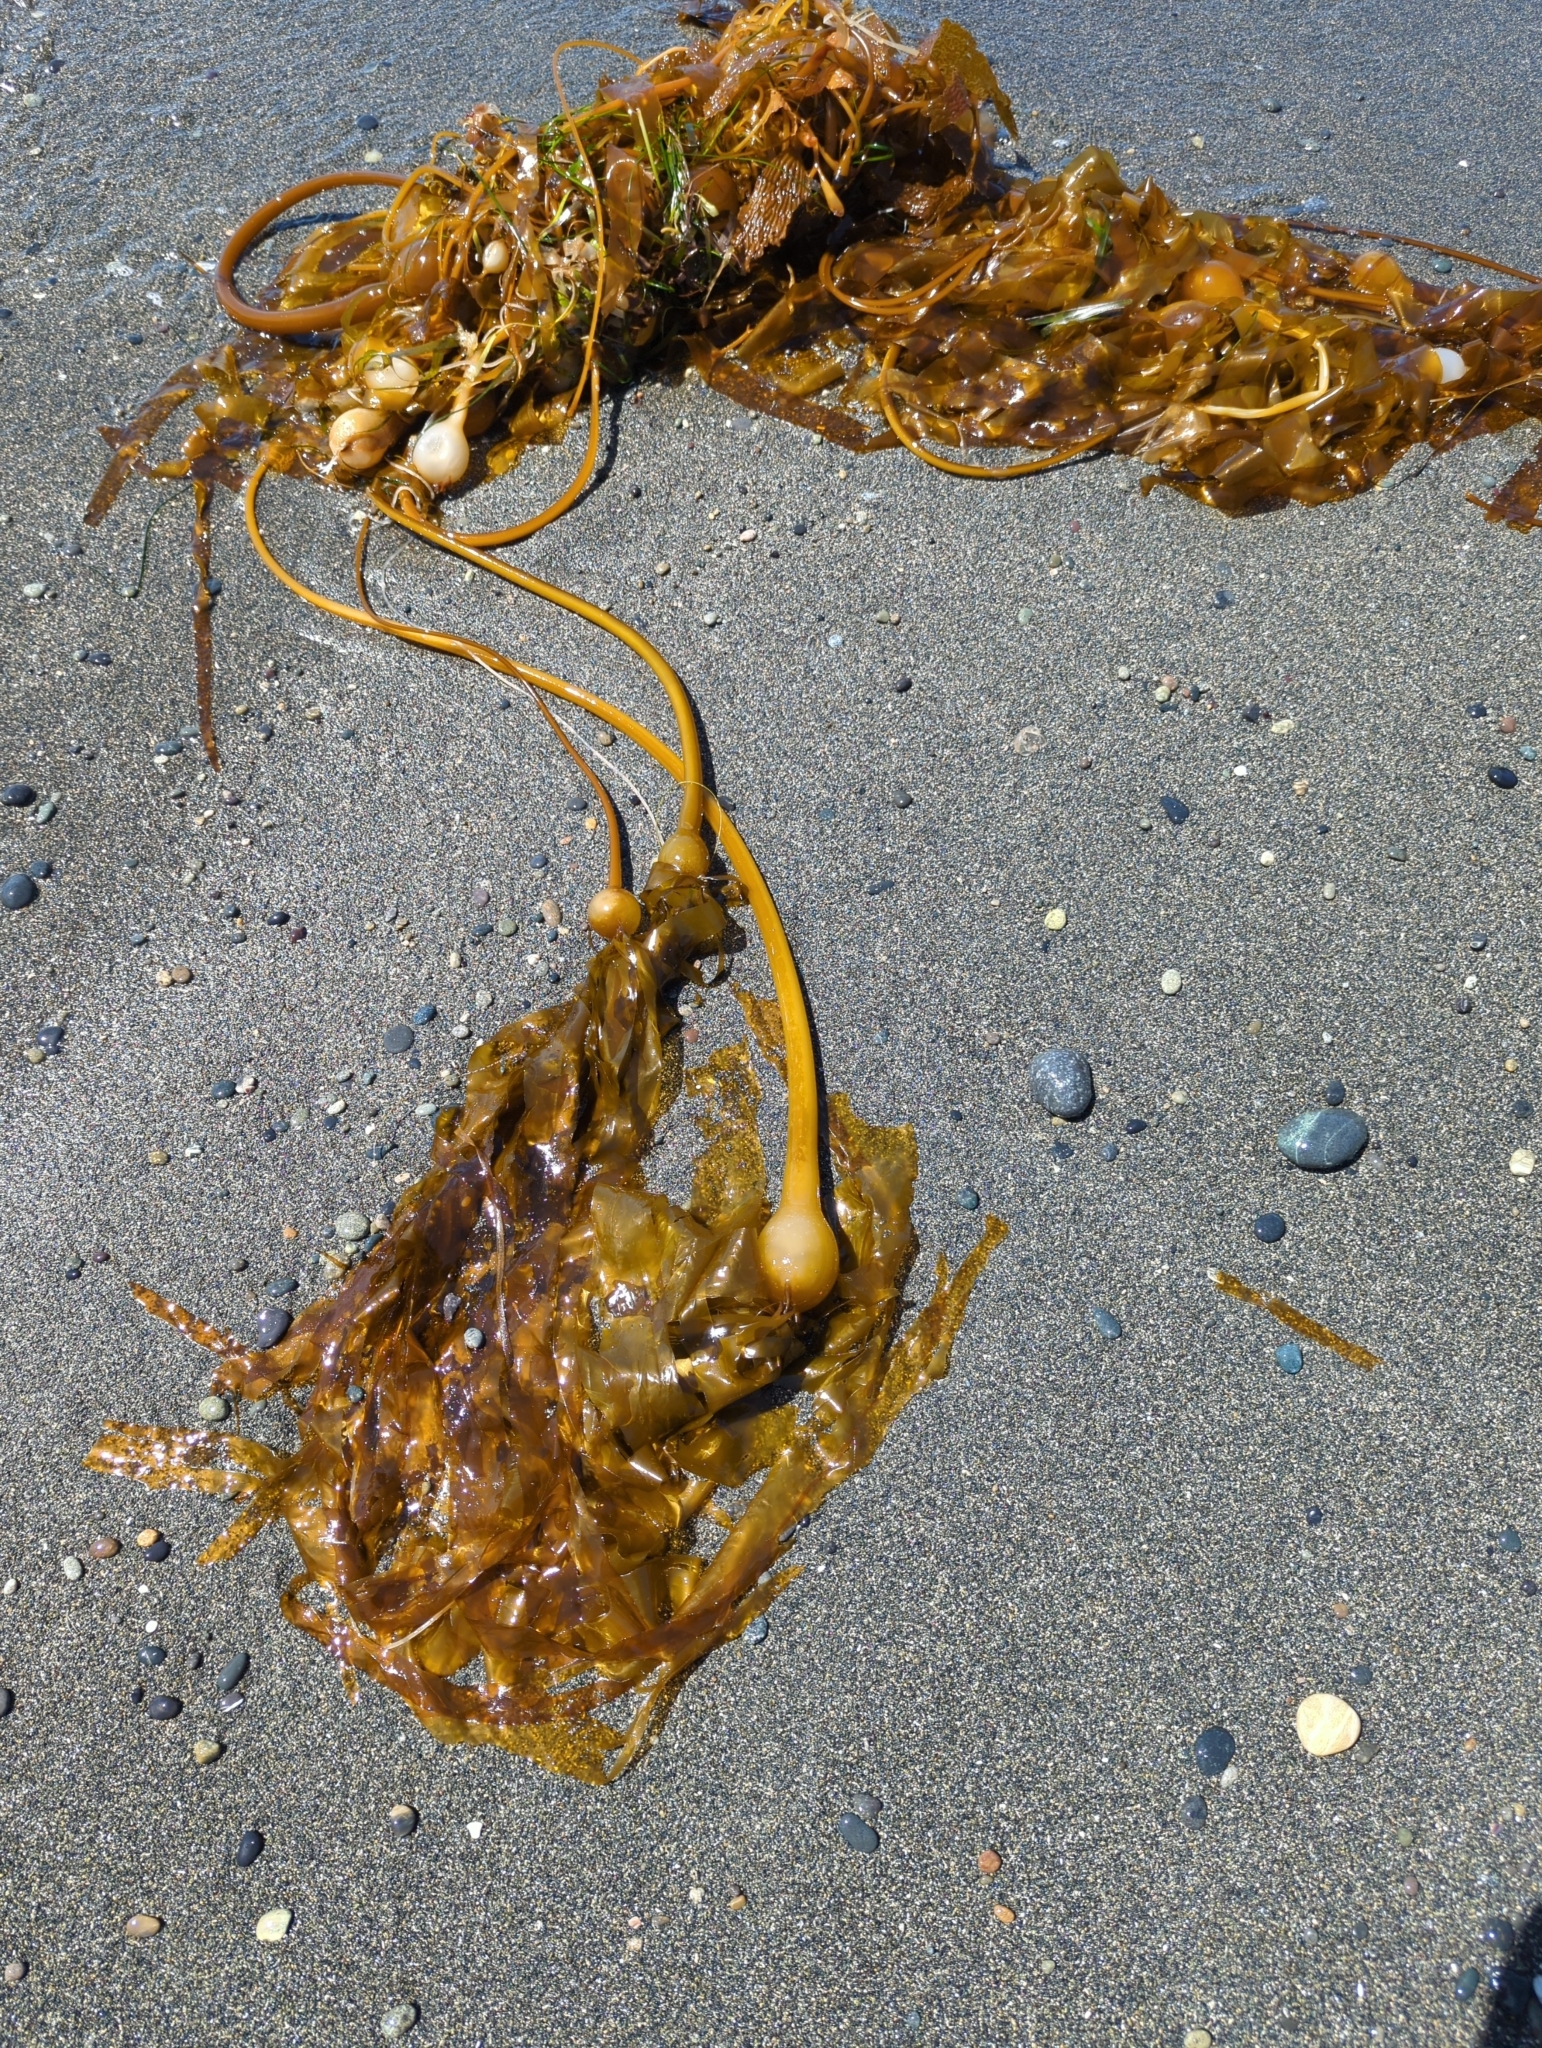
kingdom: Chromista
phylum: Ochrophyta
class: Phaeophyceae
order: Laminariales
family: Laminariaceae
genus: Nereocystis
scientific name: Nereocystis luetkeana
